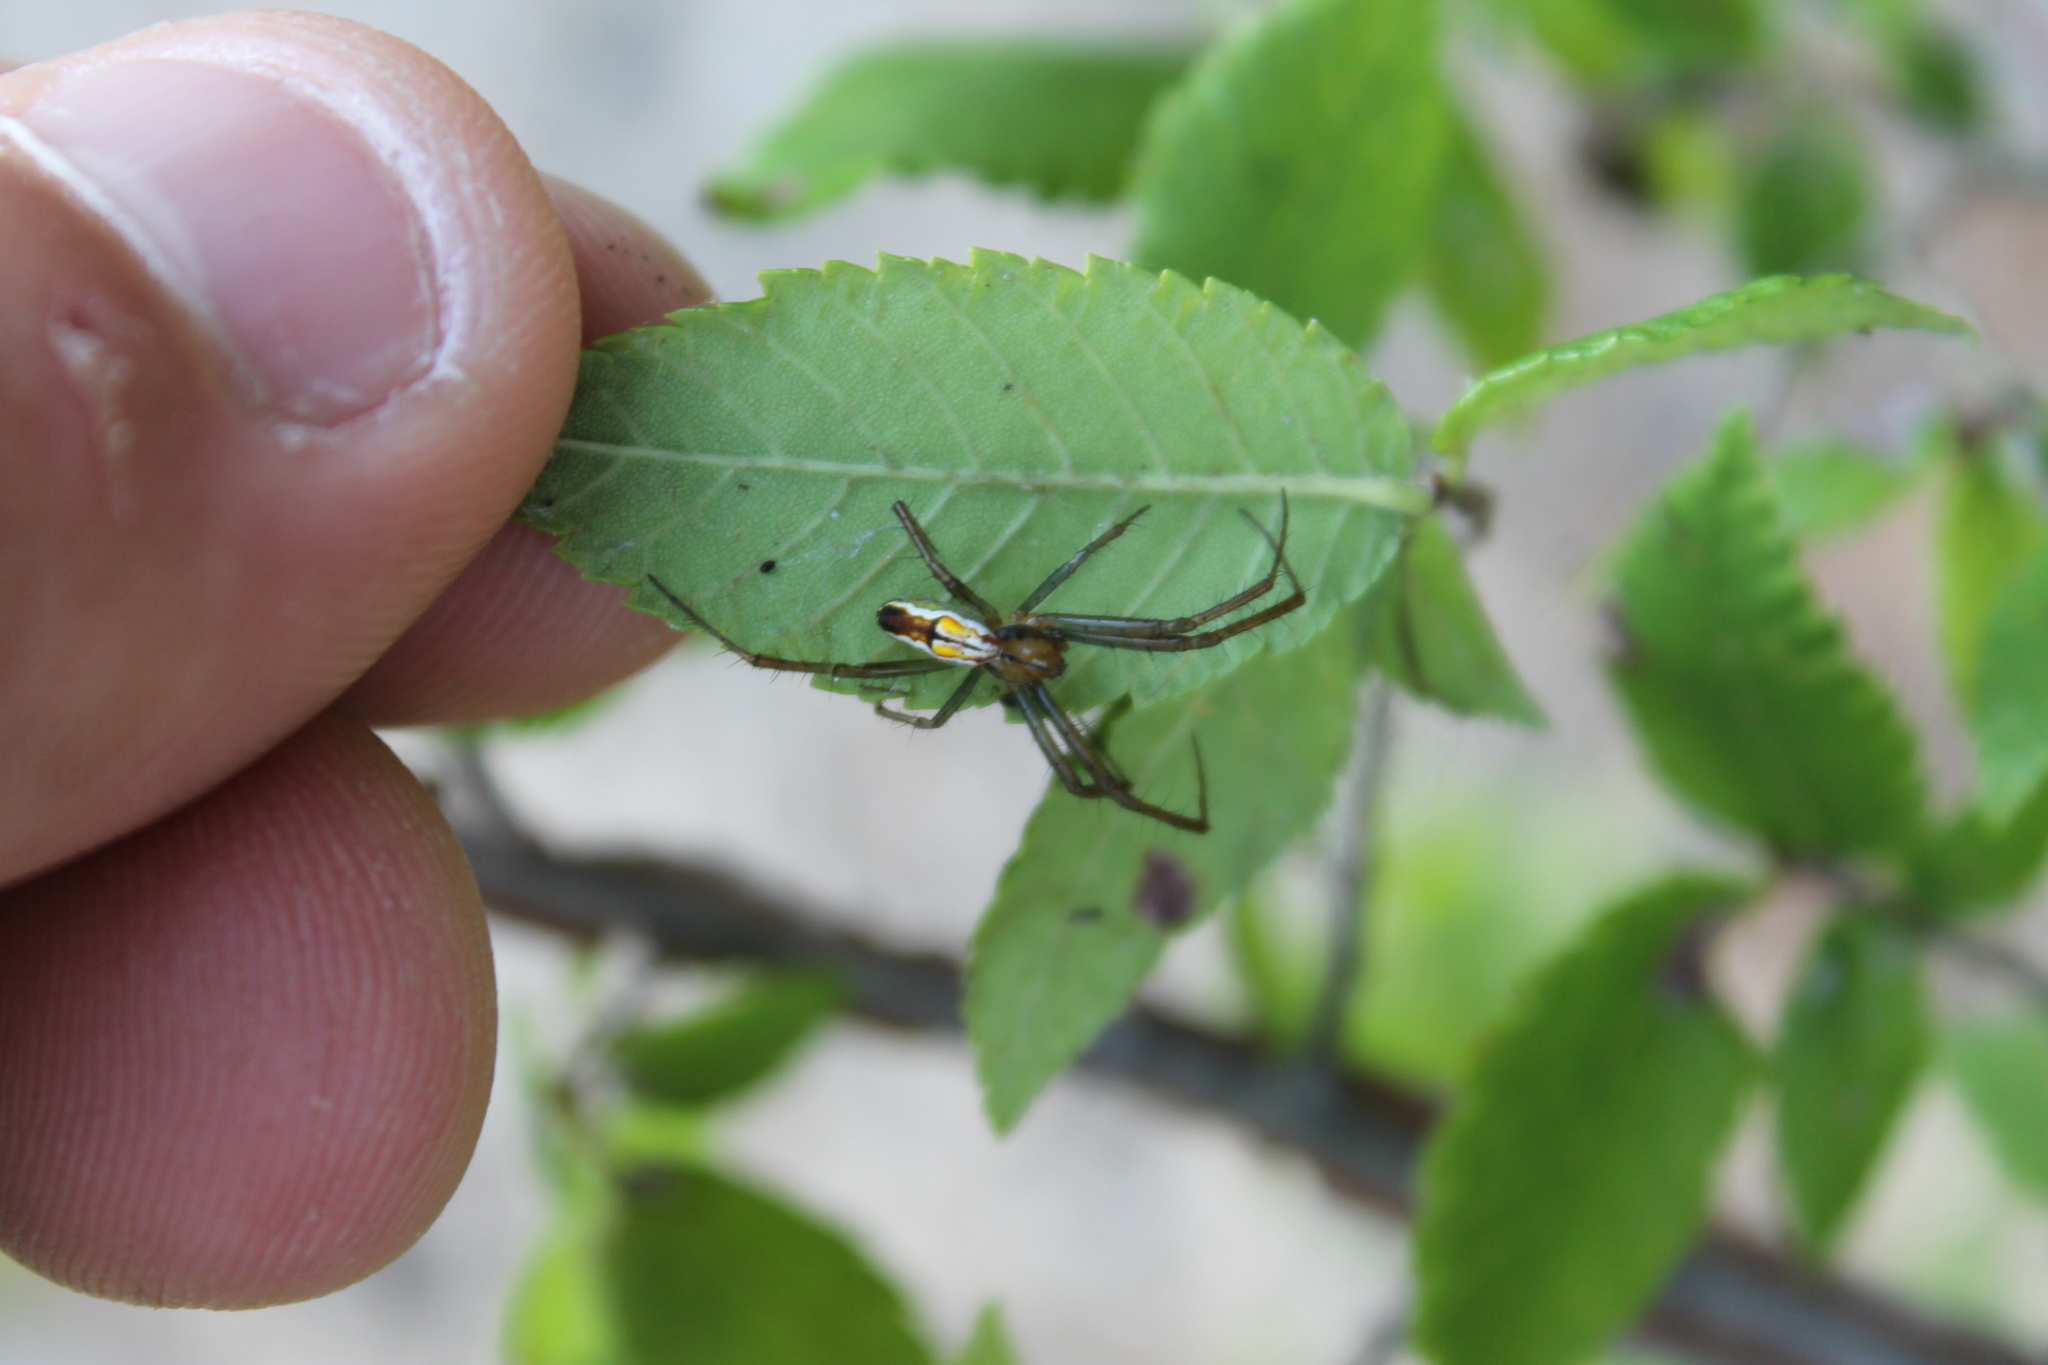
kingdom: Animalia
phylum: Arthropoda
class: Arachnida
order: Araneae
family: Araneidae
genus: Mecynogea
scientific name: Mecynogea lemniscata
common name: Orb weavers
